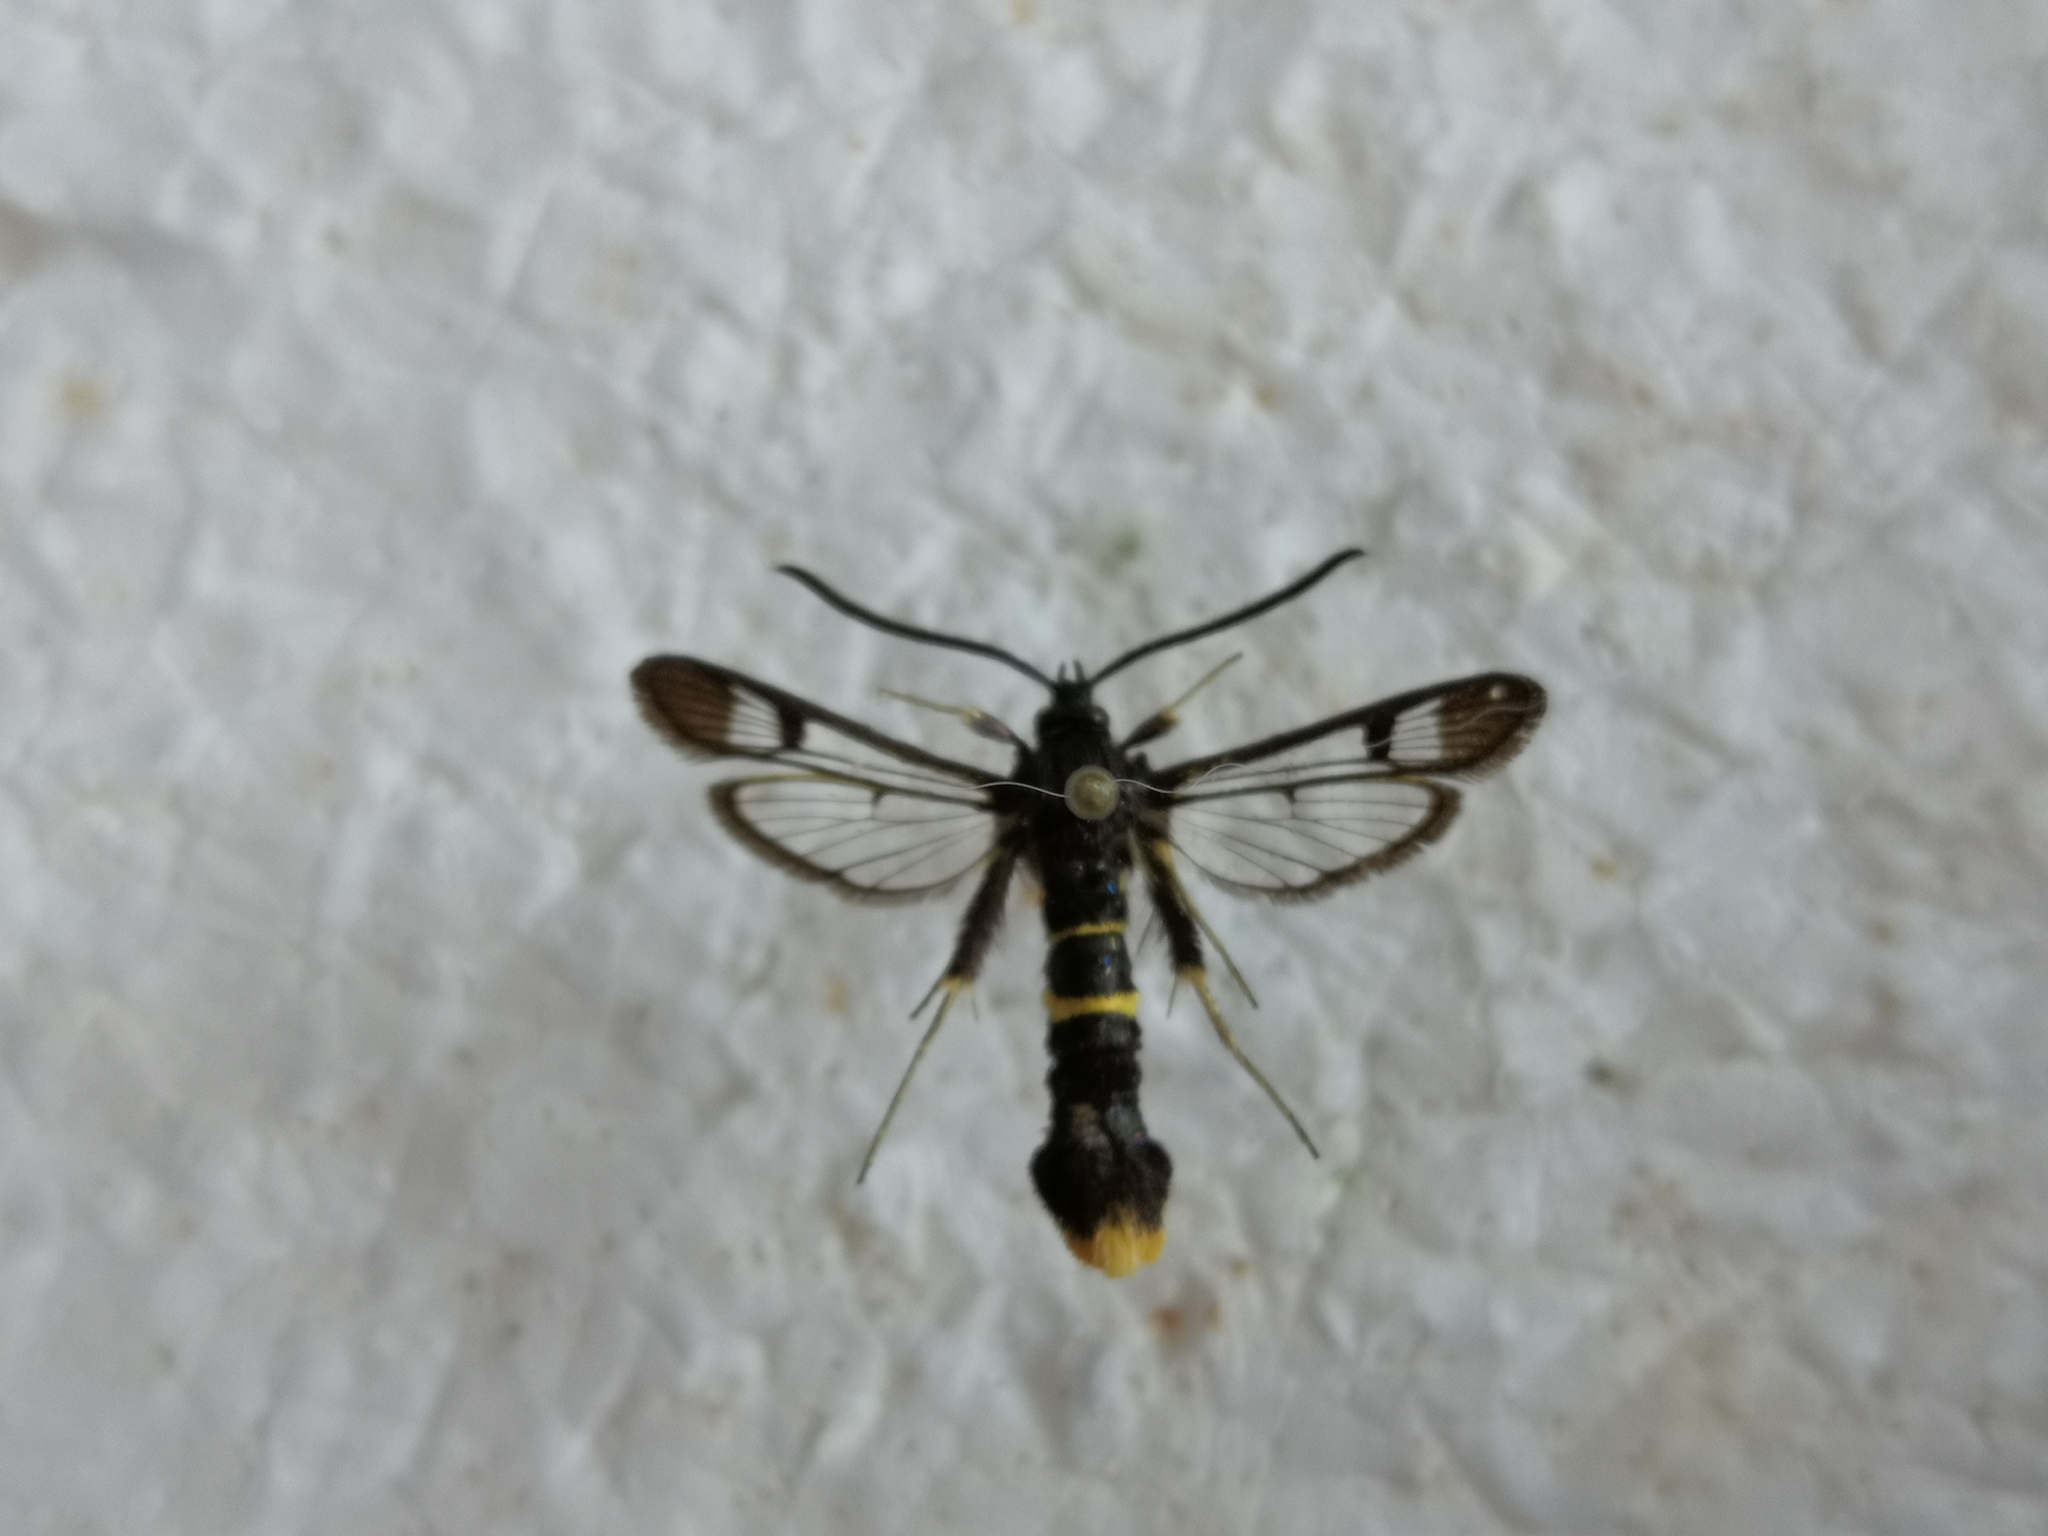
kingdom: Animalia
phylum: Arthropoda
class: Insecta
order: Lepidoptera
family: Sesiidae
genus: Synanthedon
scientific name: Synanthedon andrenaeformis
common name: Orange-tailed clearwing
